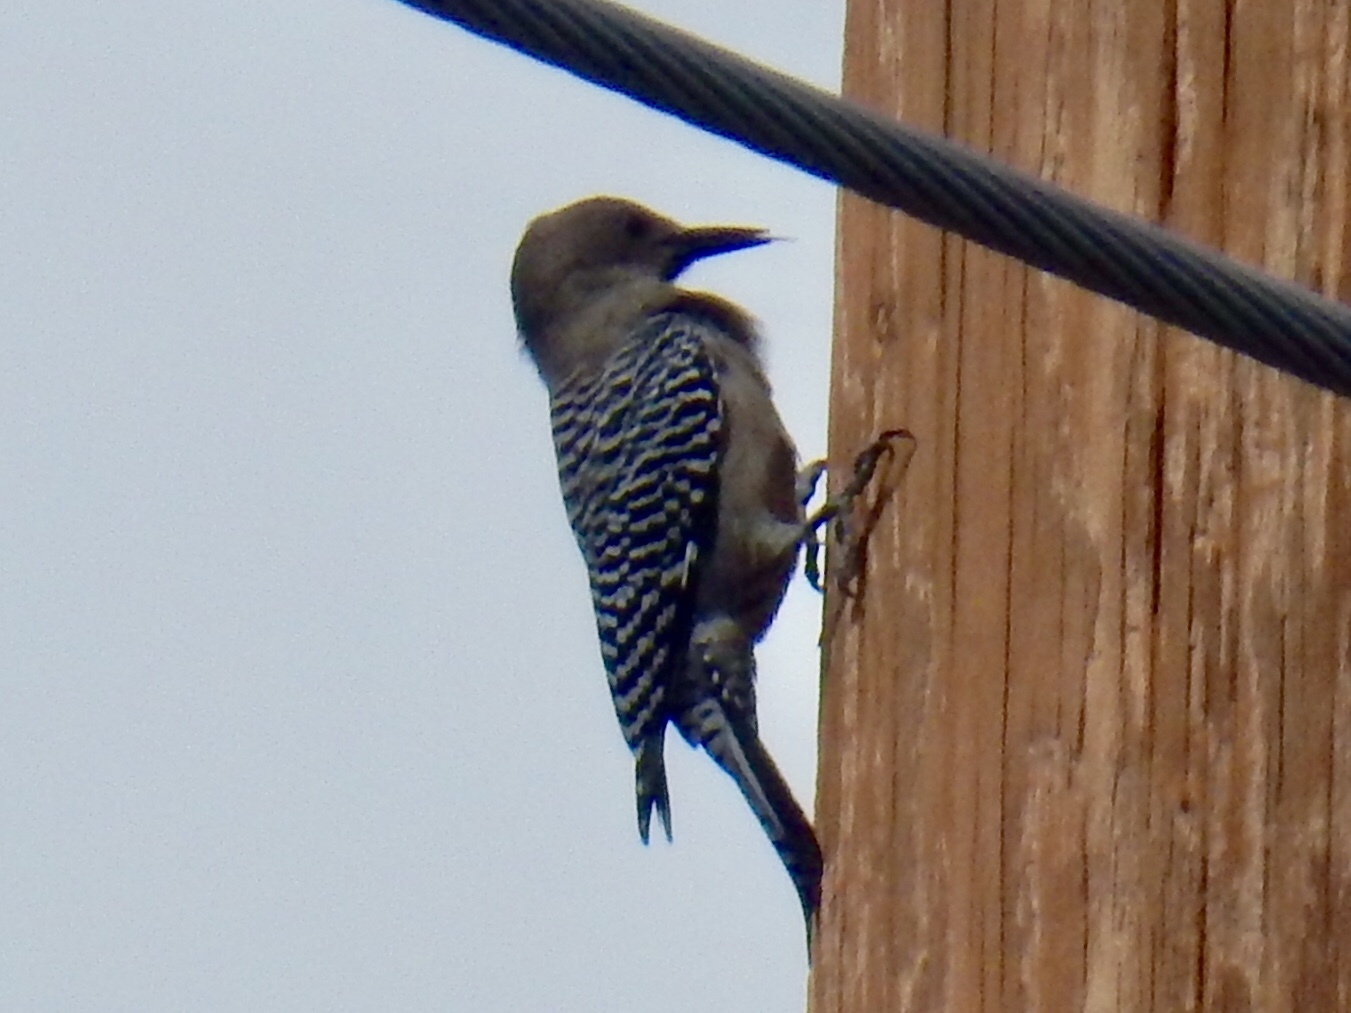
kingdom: Animalia
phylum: Chordata
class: Aves
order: Piciformes
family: Picidae
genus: Melanerpes
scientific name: Melanerpes uropygialis
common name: Gila woodpecker
